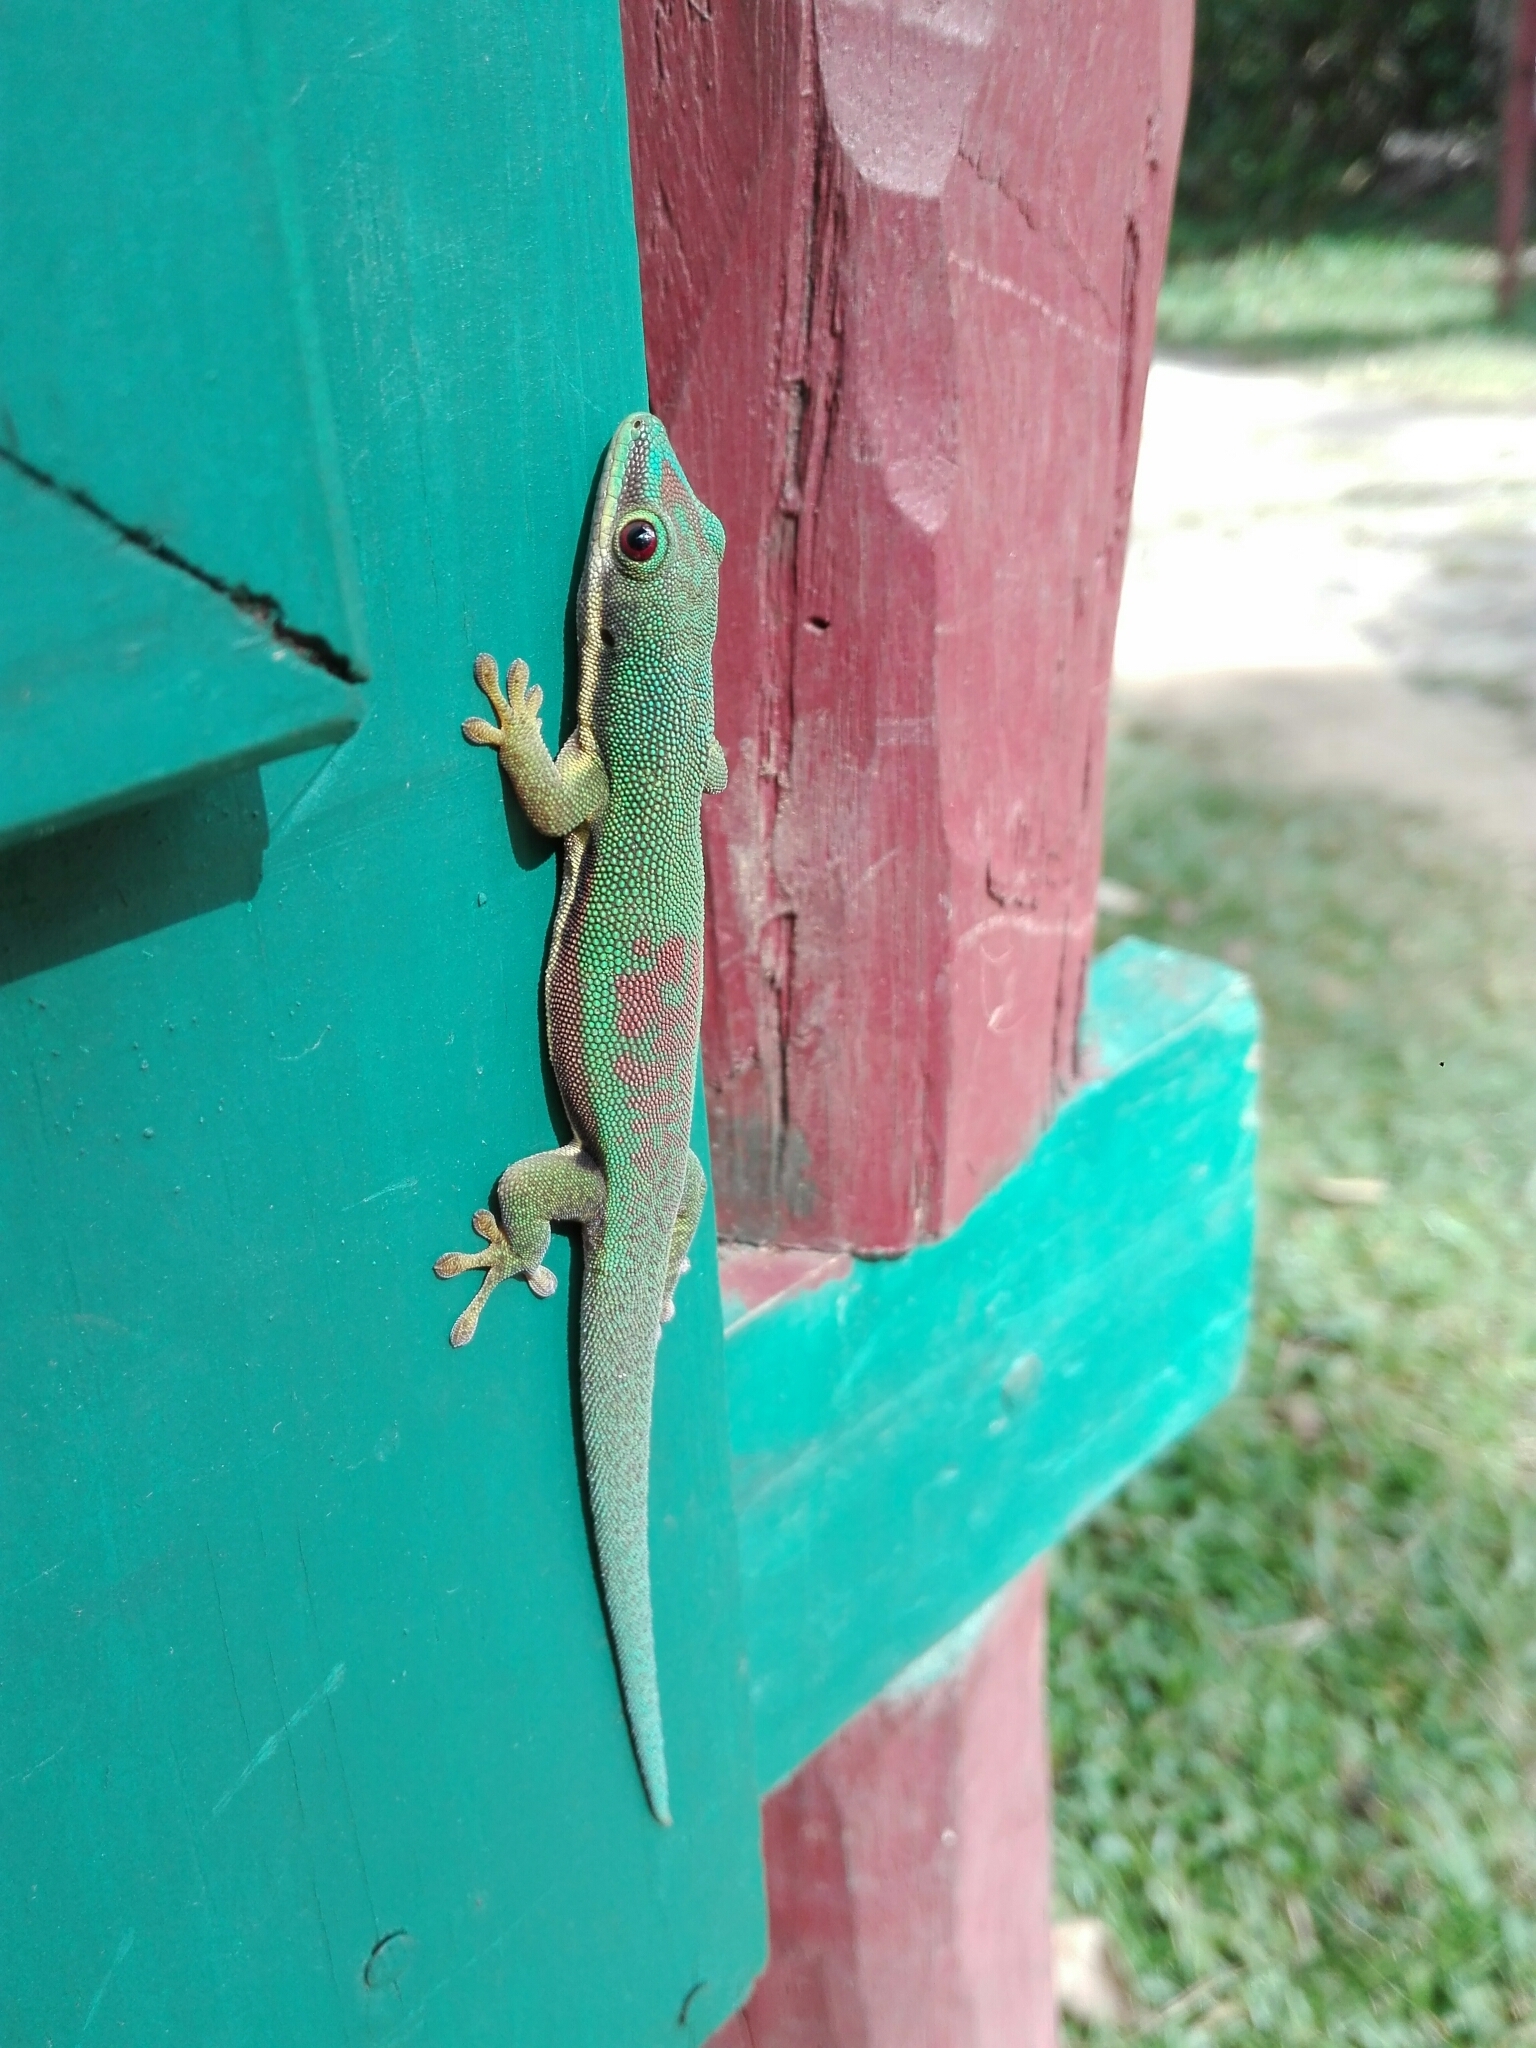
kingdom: Animalia
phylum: Chordata
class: Squamata
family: Gekkonidae
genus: Phelsuma
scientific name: Phelsuma lineata
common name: Lined day gecko
